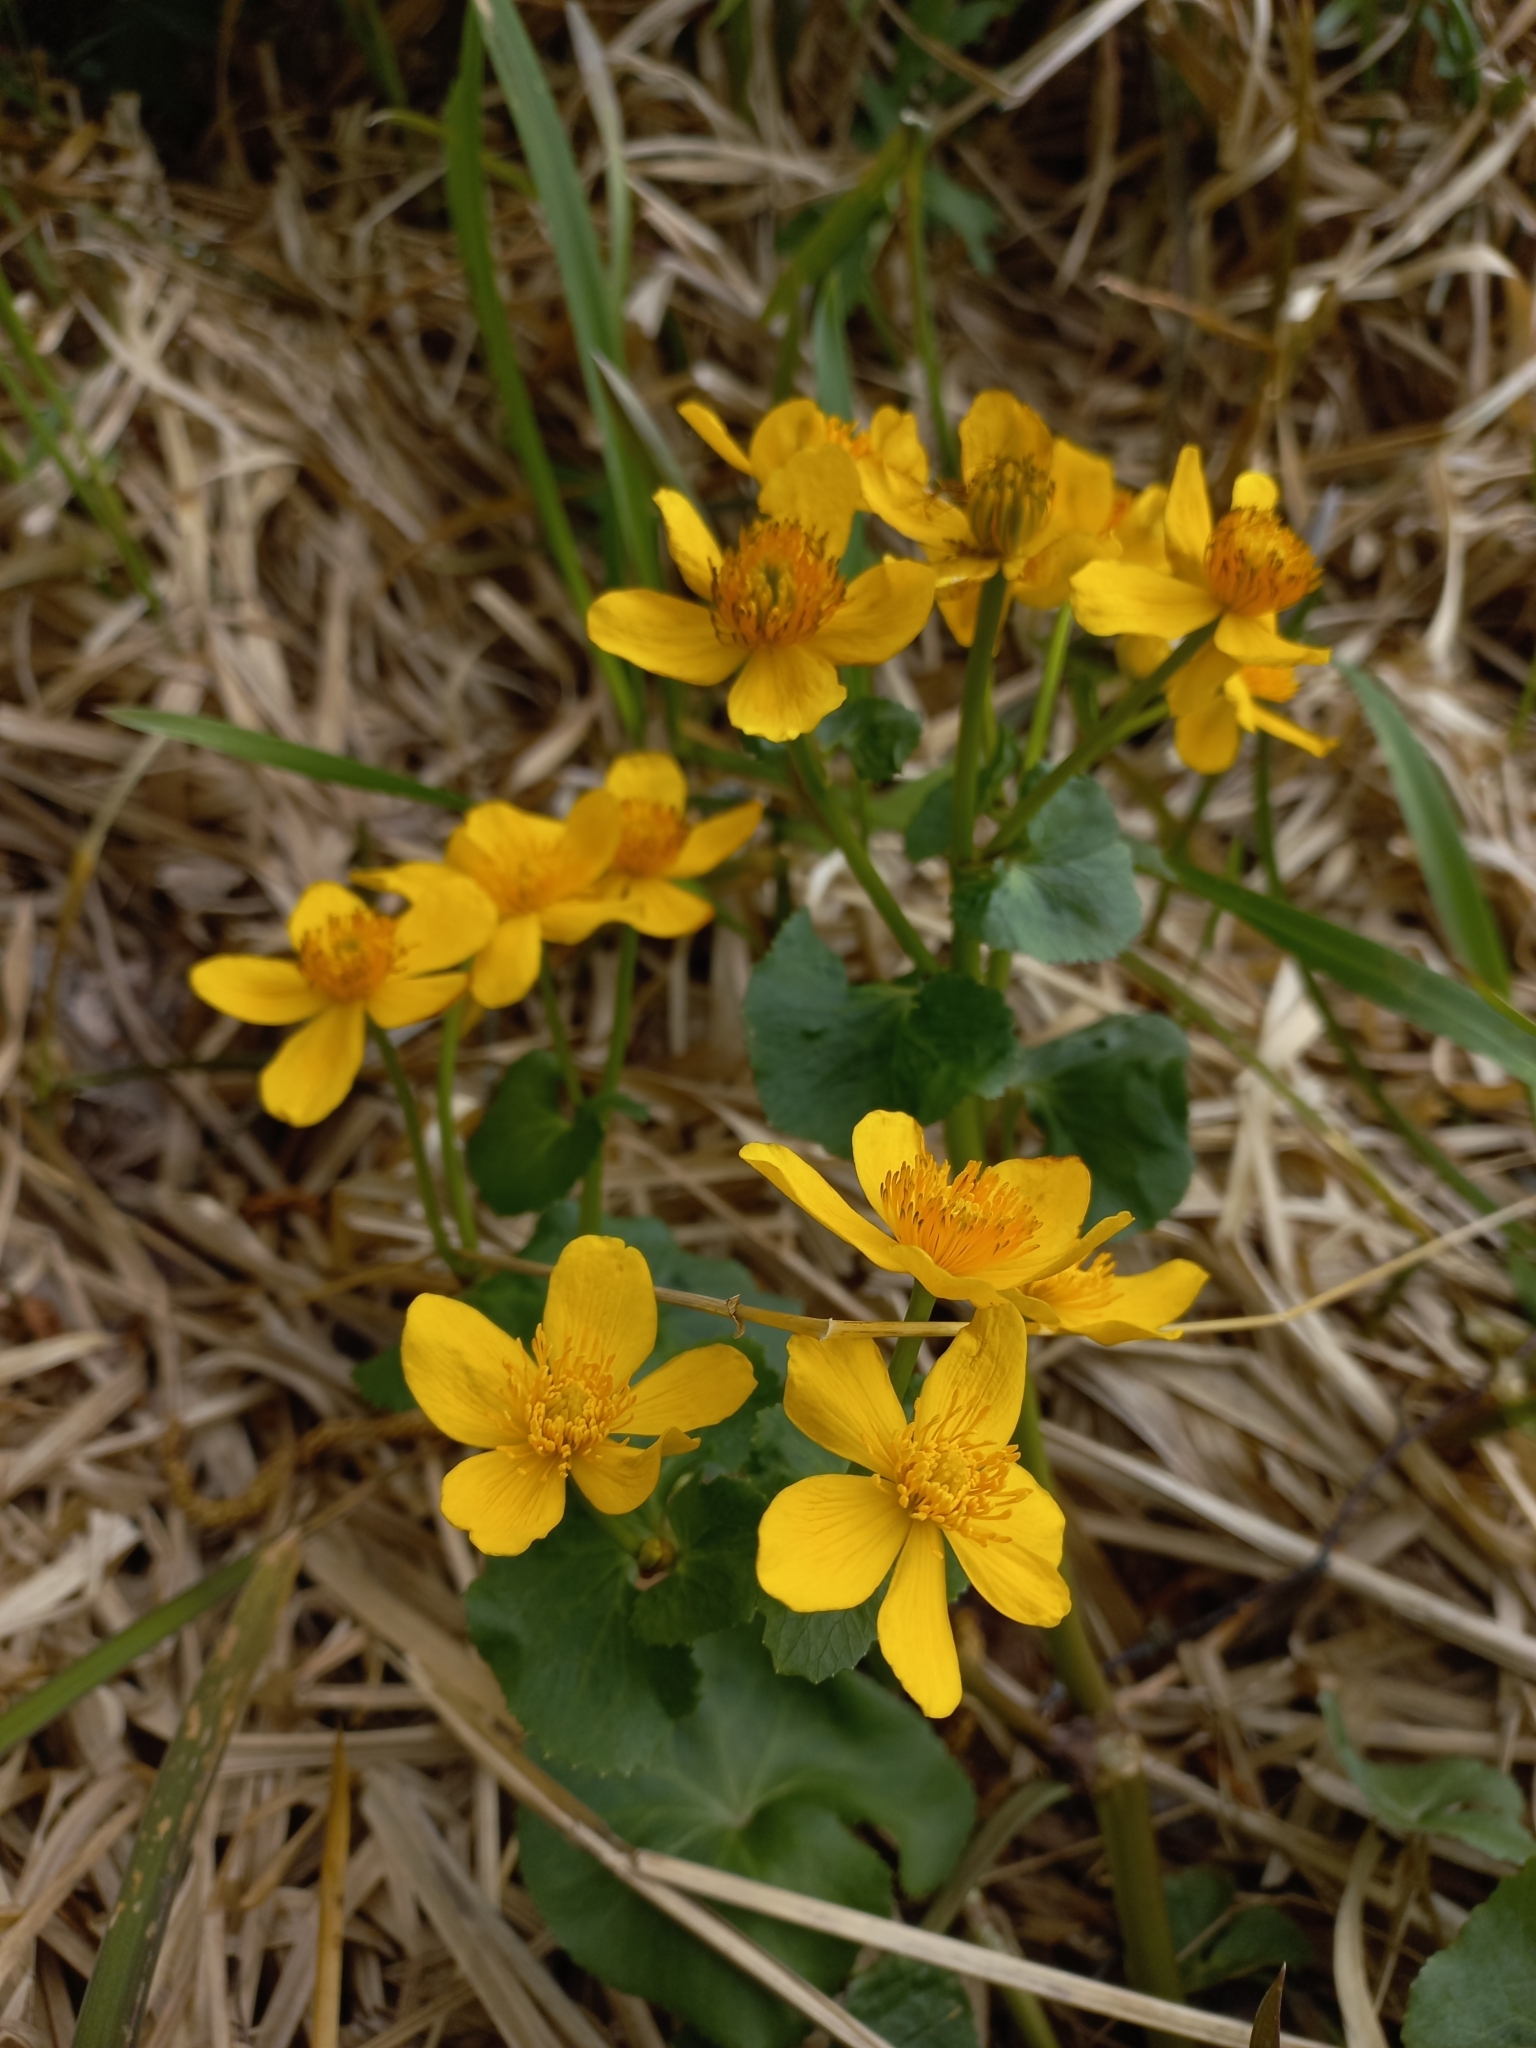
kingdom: Plantae
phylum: Tracheophyta
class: Magnoliopsida
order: Ranunculales
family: Ranunculaceae
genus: Caltha
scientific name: Caltha palustris
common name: Marsh marigold
